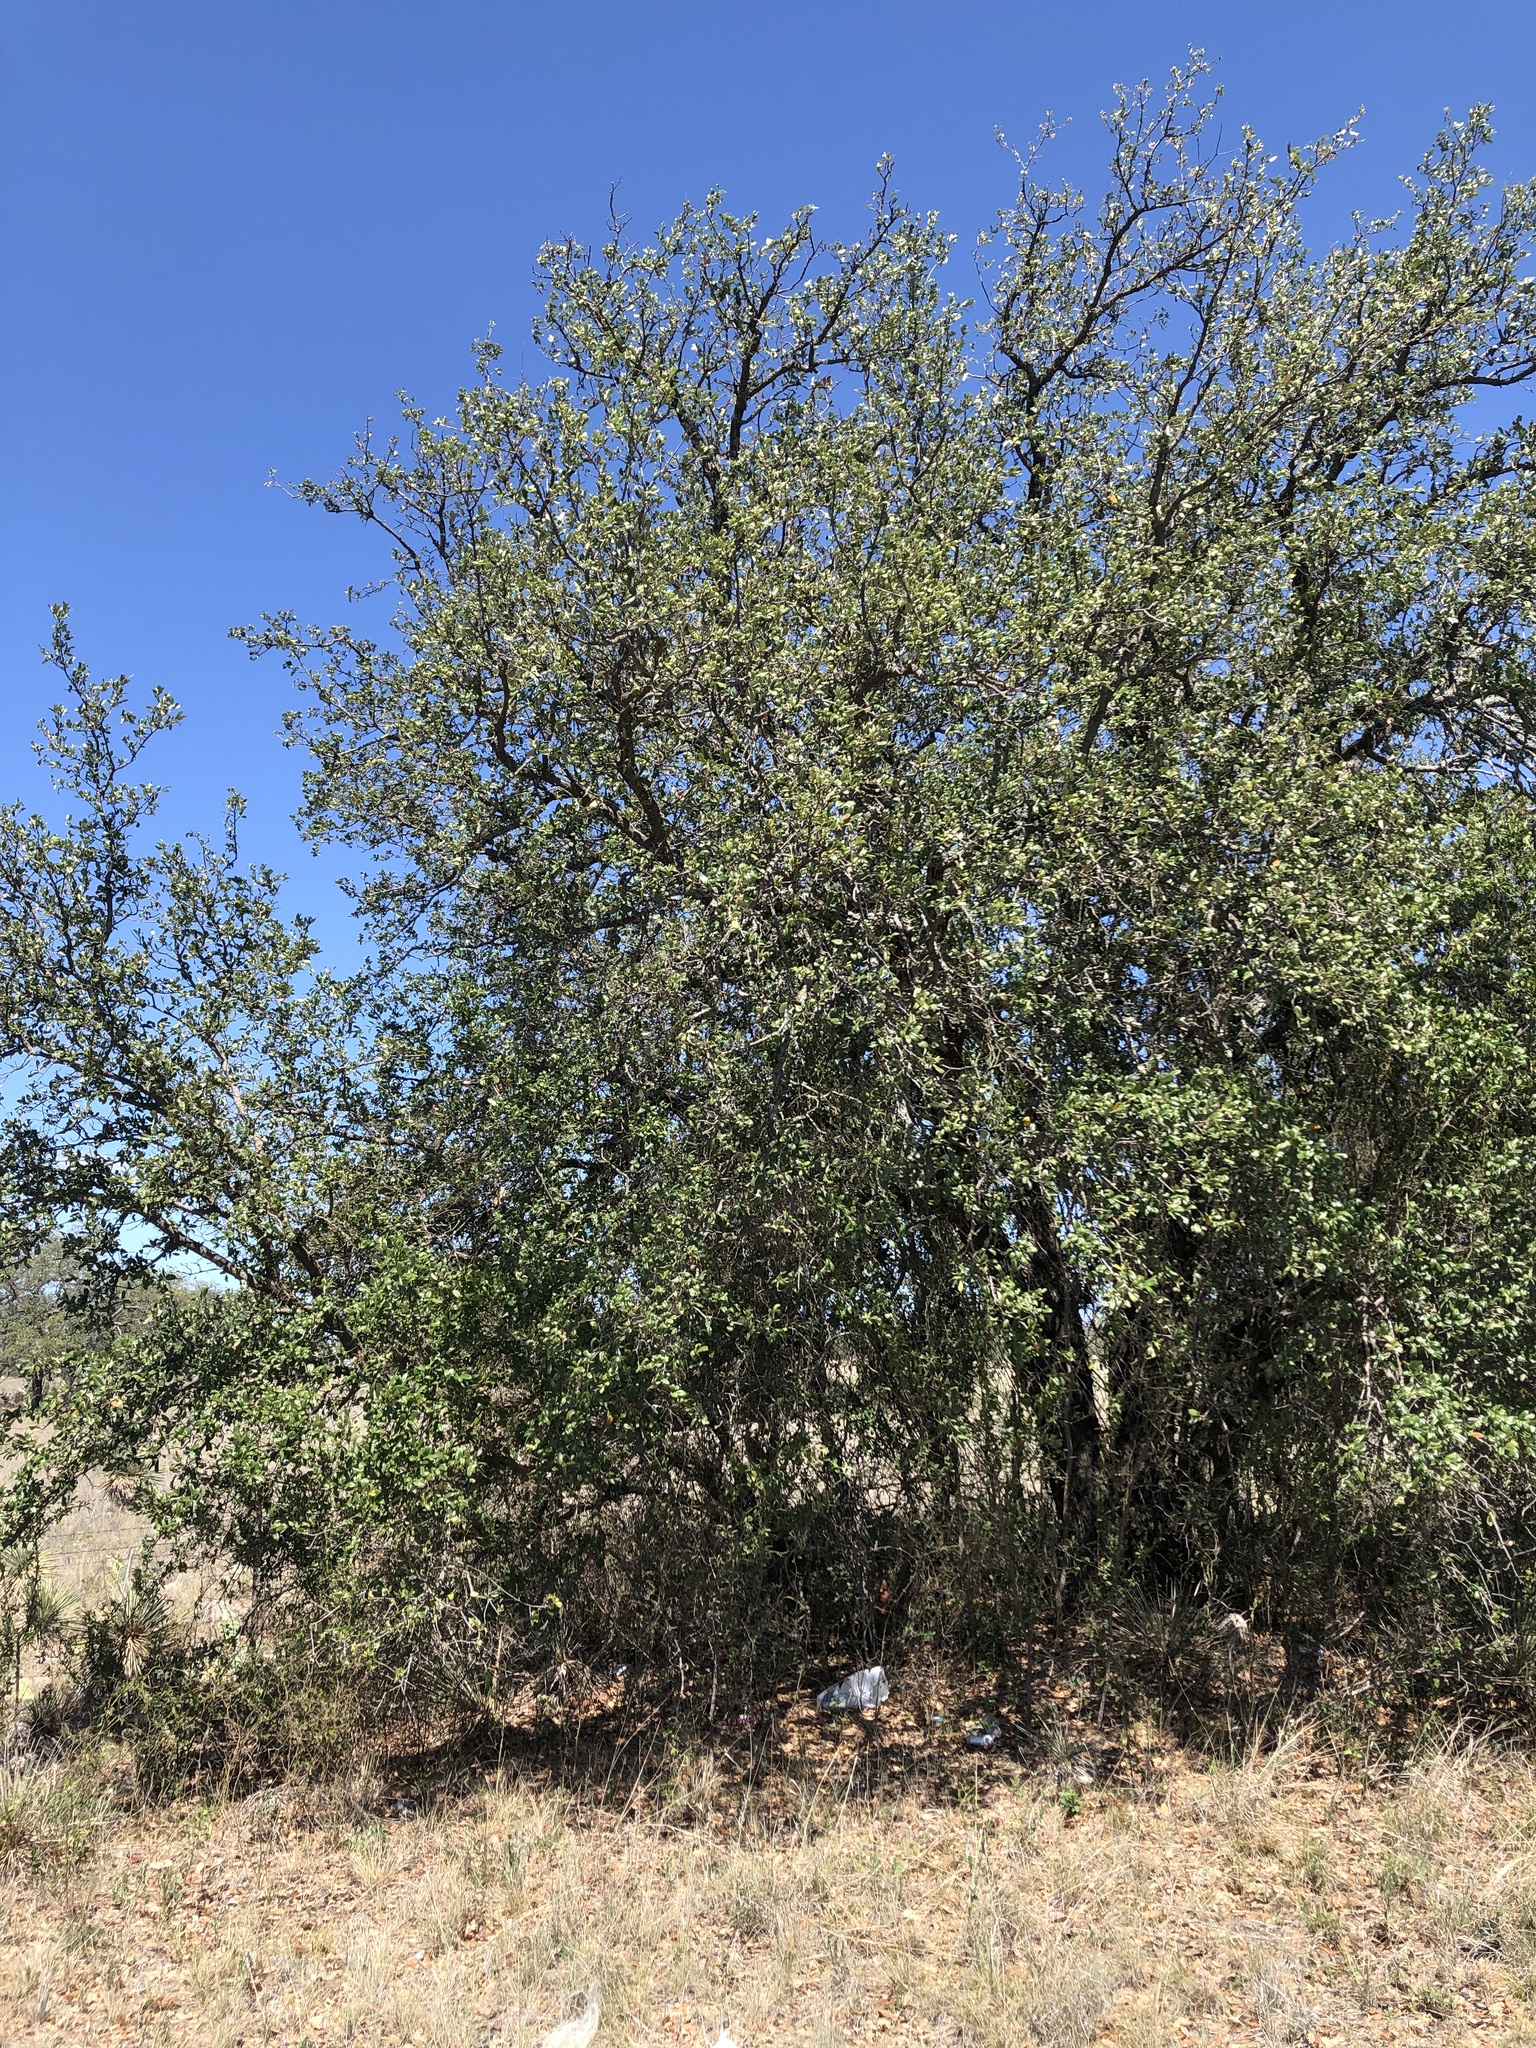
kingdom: Animalia
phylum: Chordata
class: Aves
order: Passeriformes
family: Vireonidae
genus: Vireo
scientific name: Vireo bellii
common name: Bell's vireo
